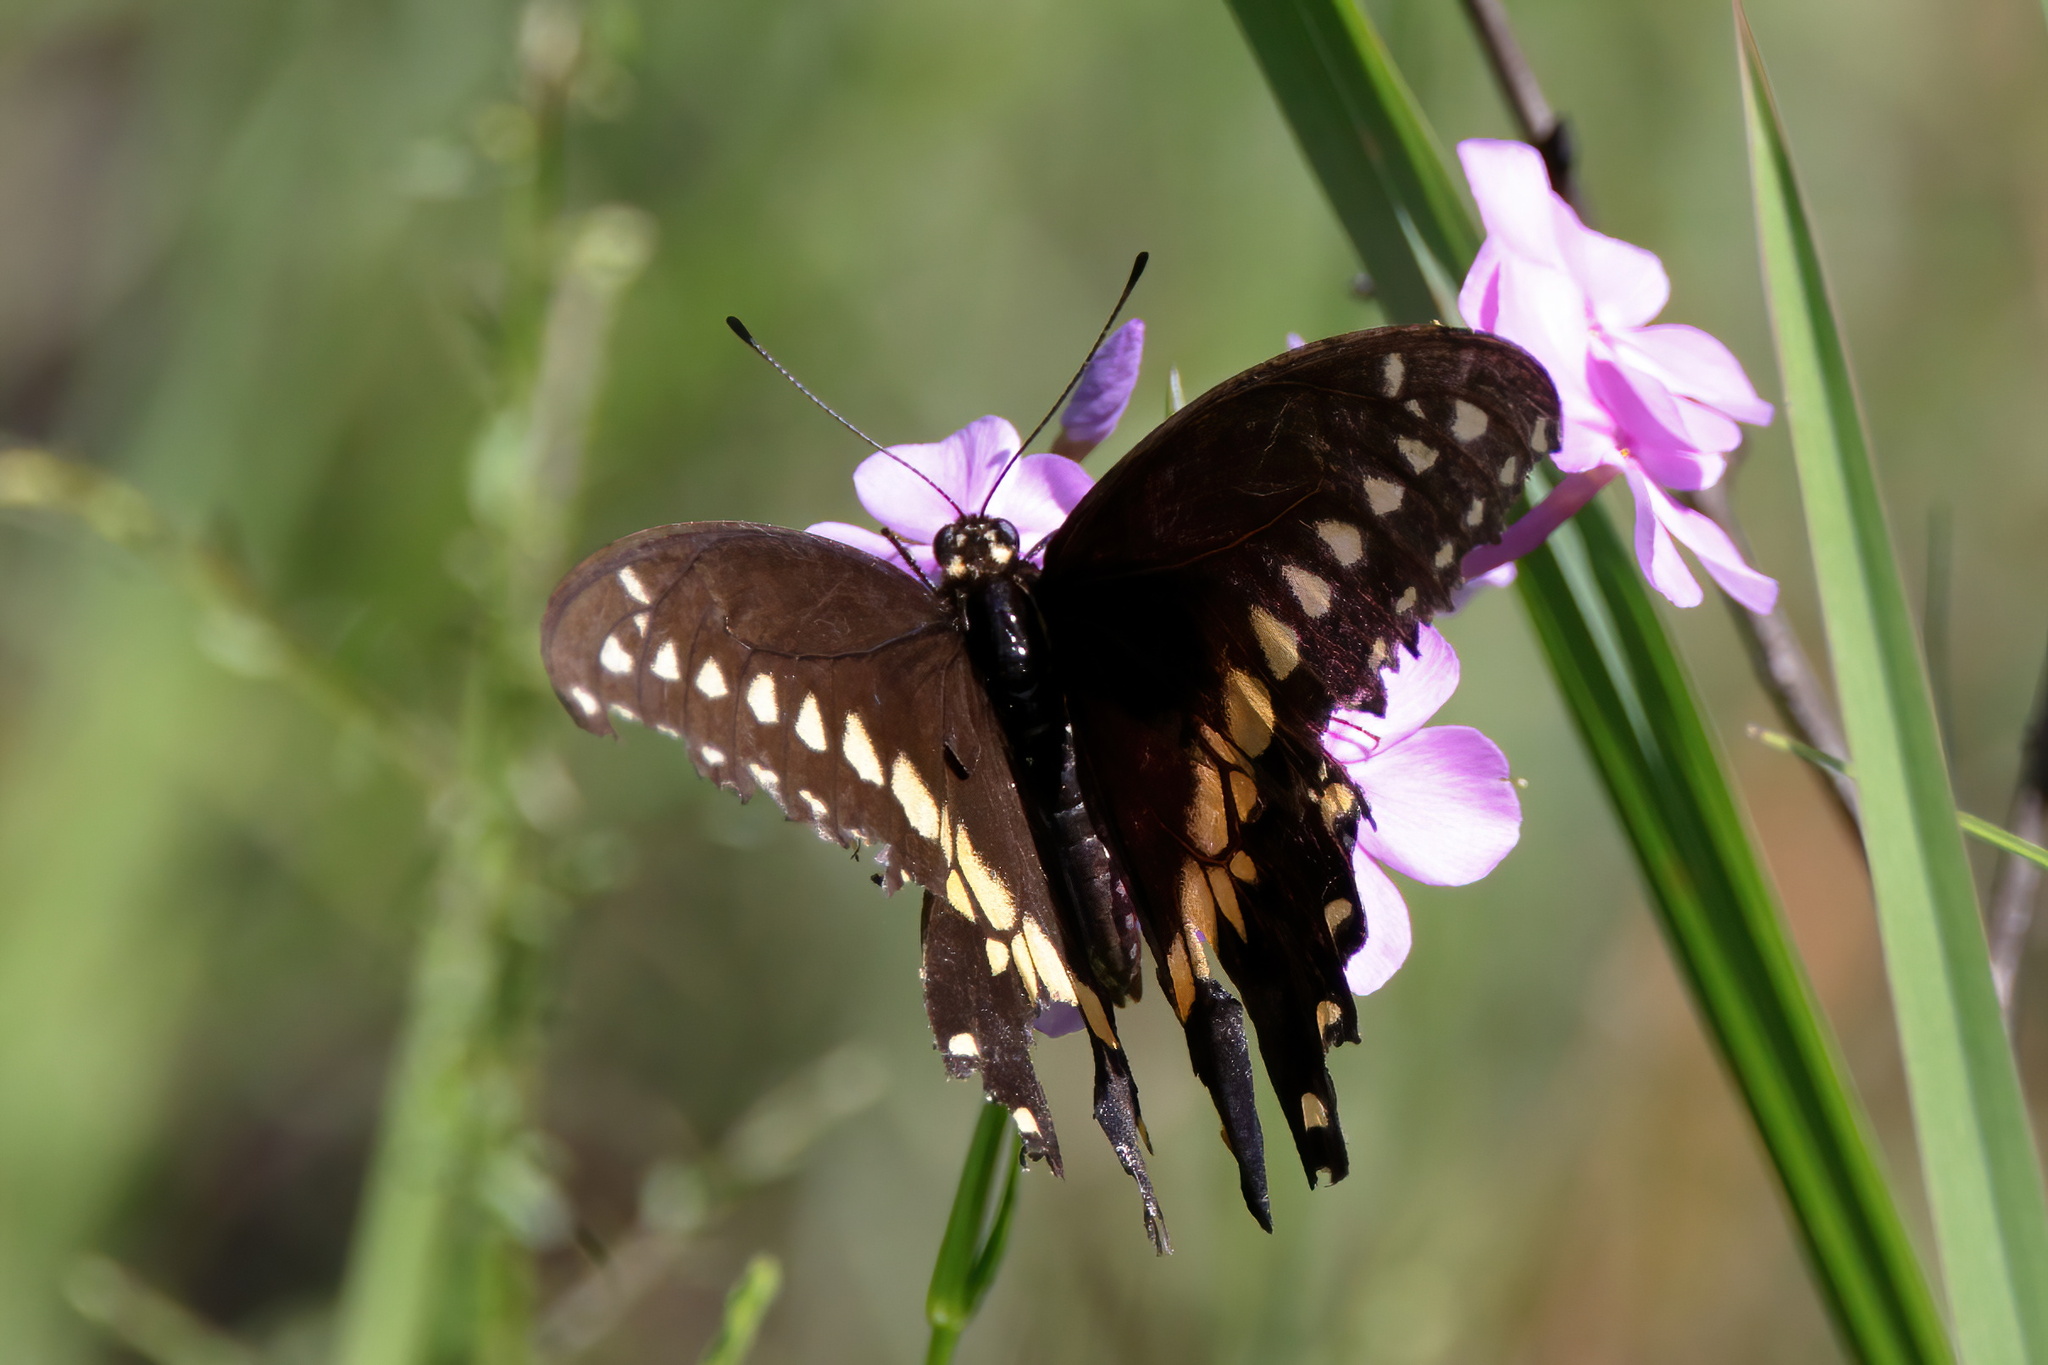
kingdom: Animalia
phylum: Arthropoda
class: Insecta
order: Lepidoptera
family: Papilionidae
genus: Papilio
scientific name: Papilio polyxenes
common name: Black swallowtail
